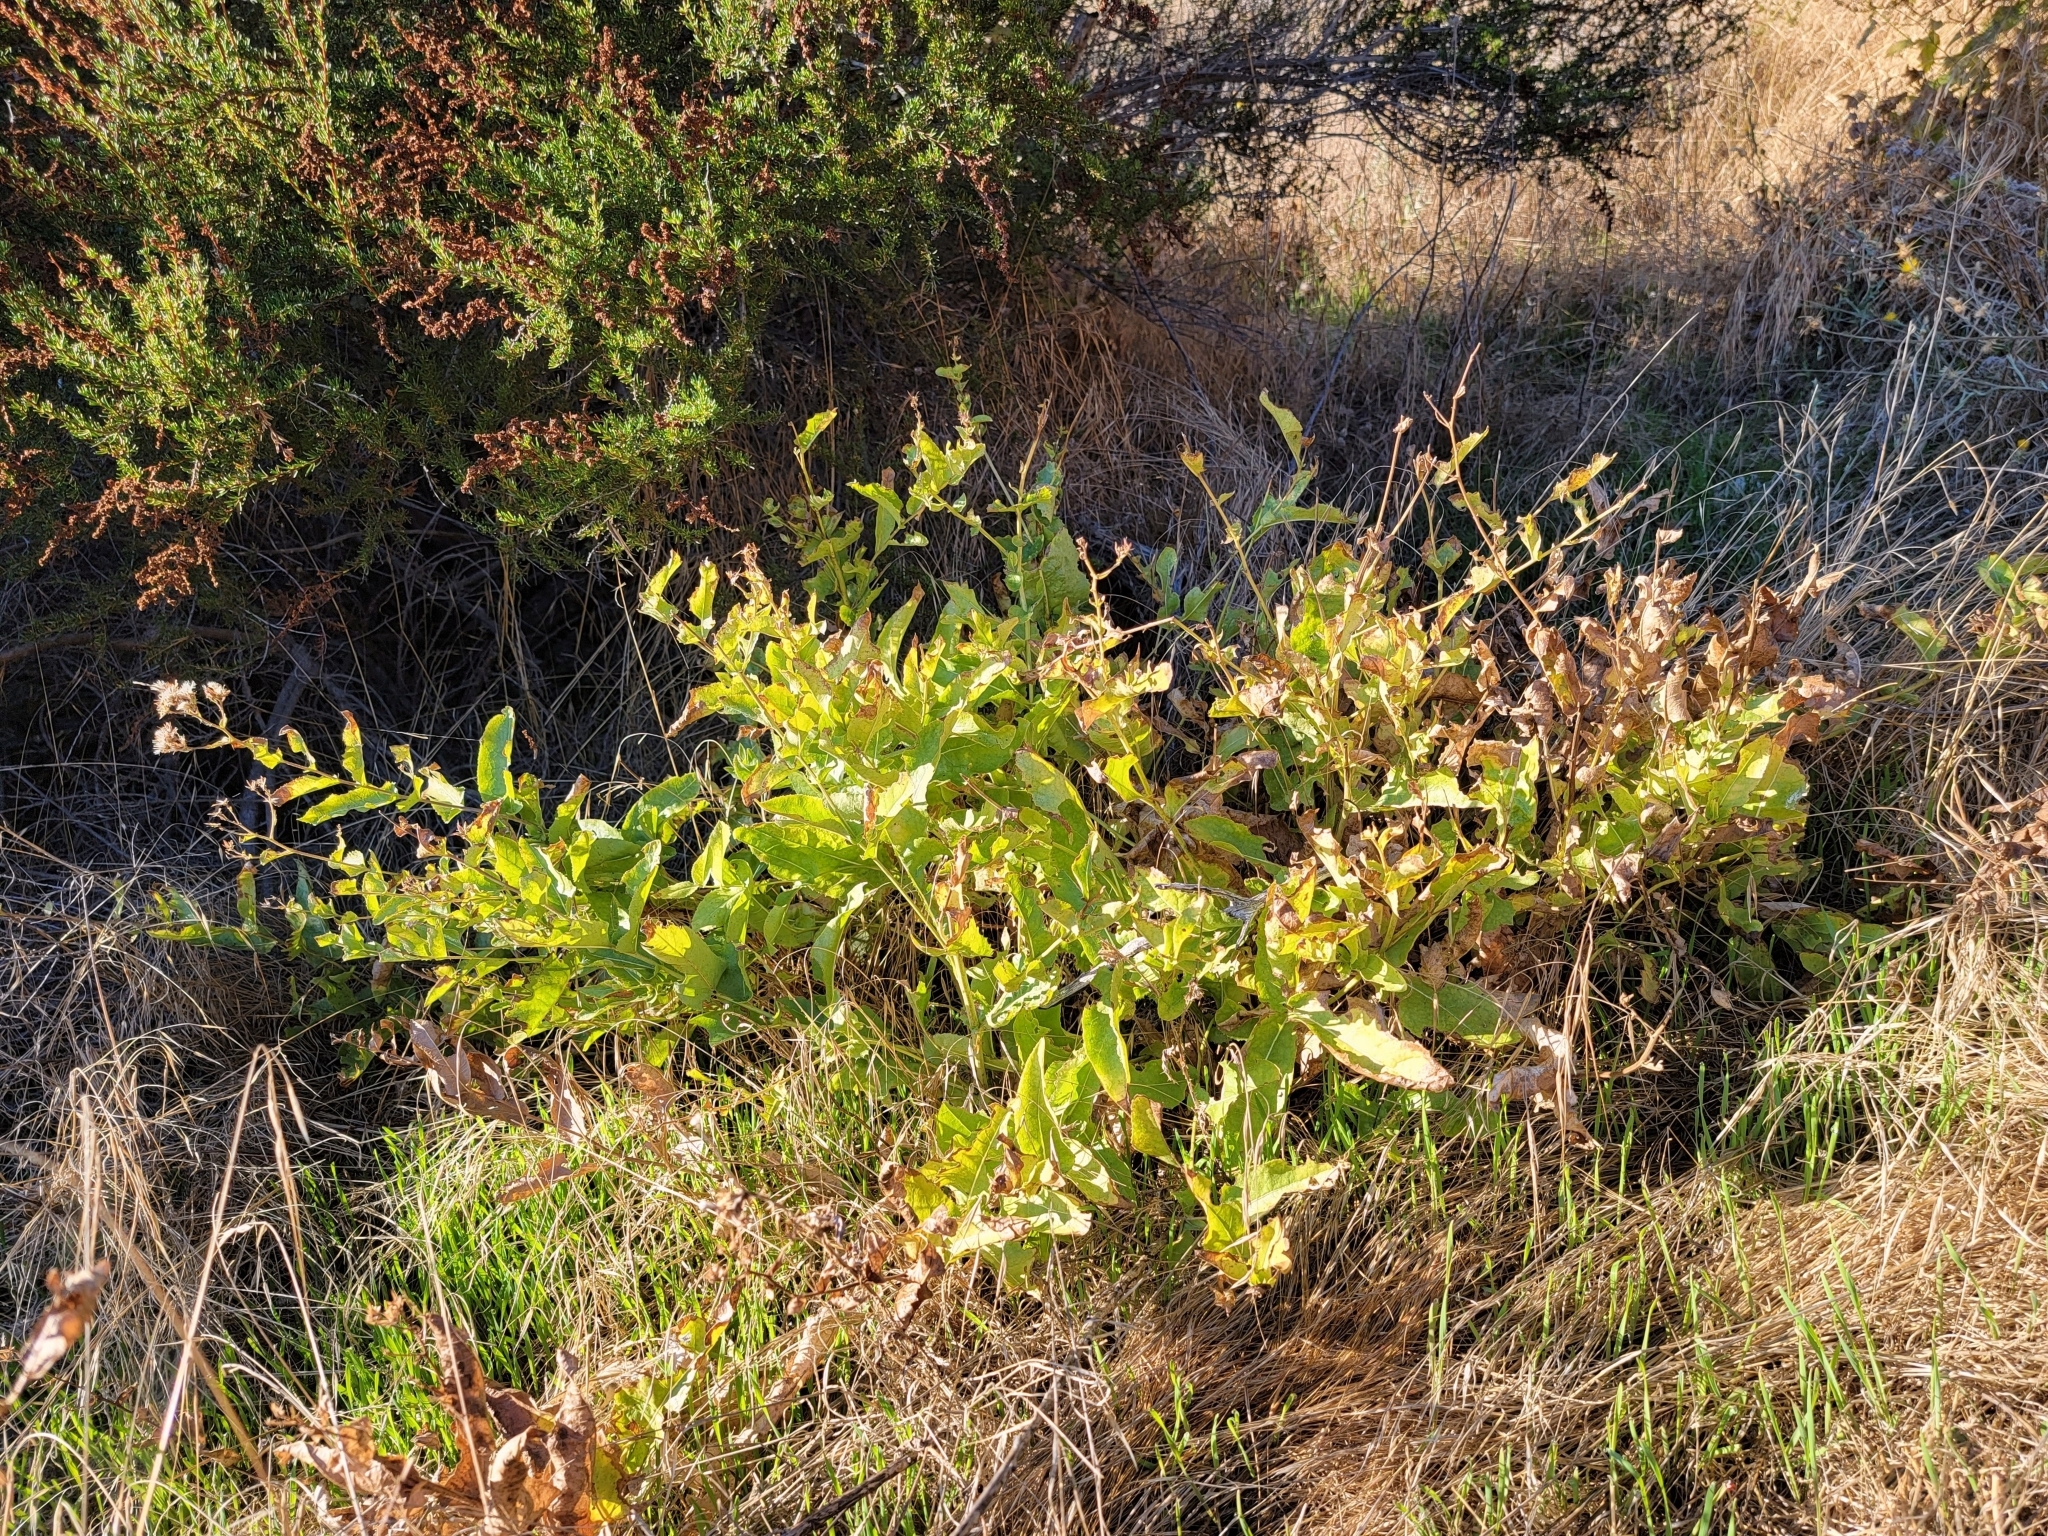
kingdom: Plantae
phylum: Tracheophyta
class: Magnoliopsida
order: Asterales
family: Asteraceae
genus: Acourtia
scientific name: Acourtia microcephala
